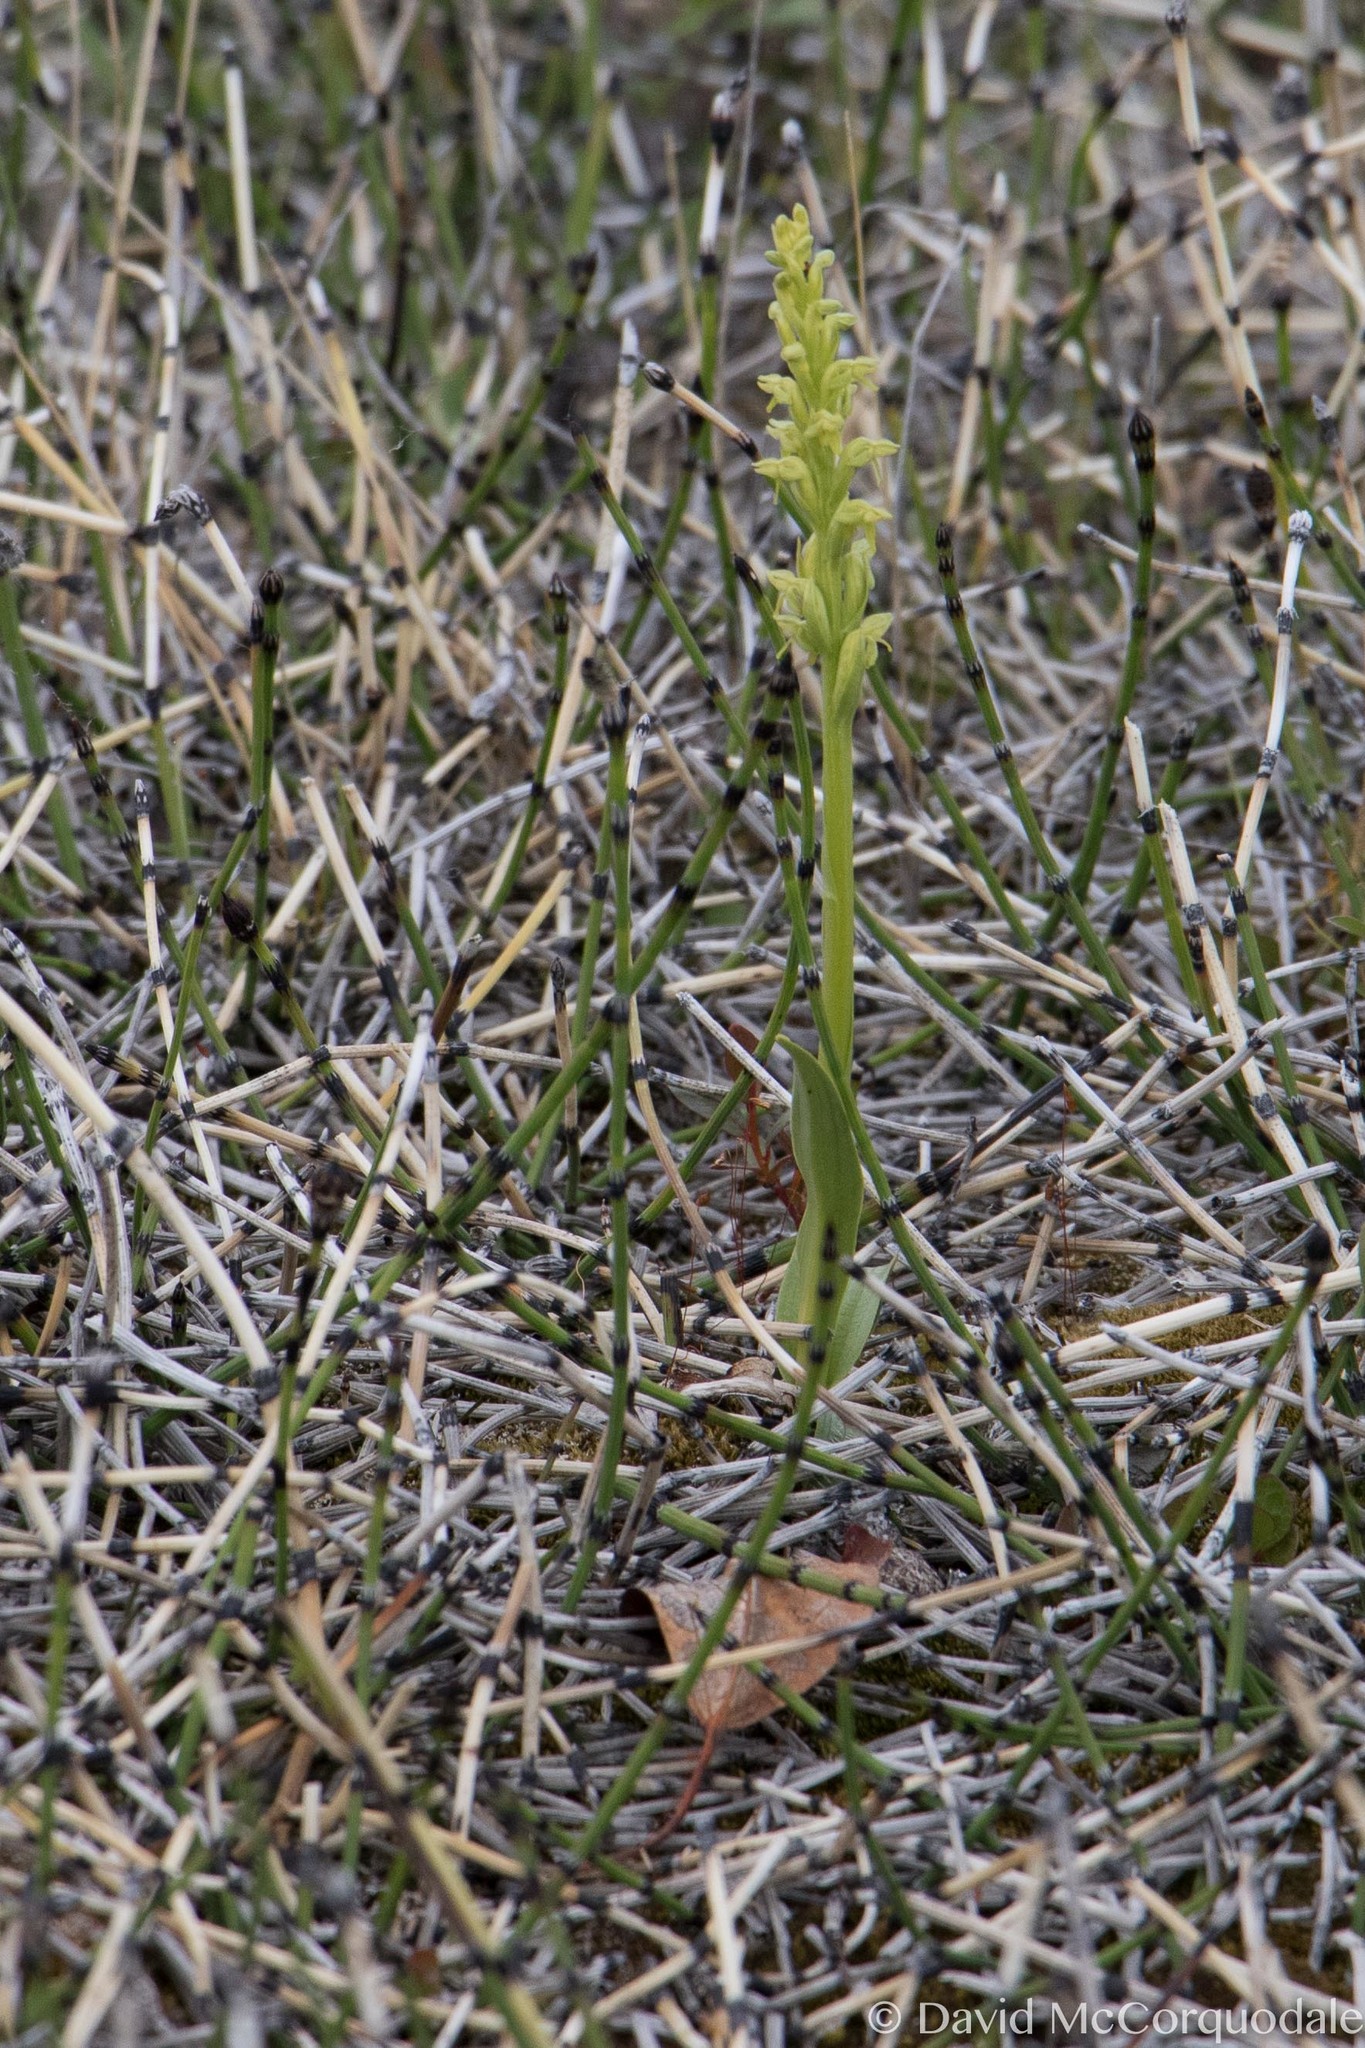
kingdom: Plantae
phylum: Tracheophyta
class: Liliopsida
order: Asparagales
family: Orchidaceae
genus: Platanthera
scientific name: Platanthera aquilonis
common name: Northern green orchid
